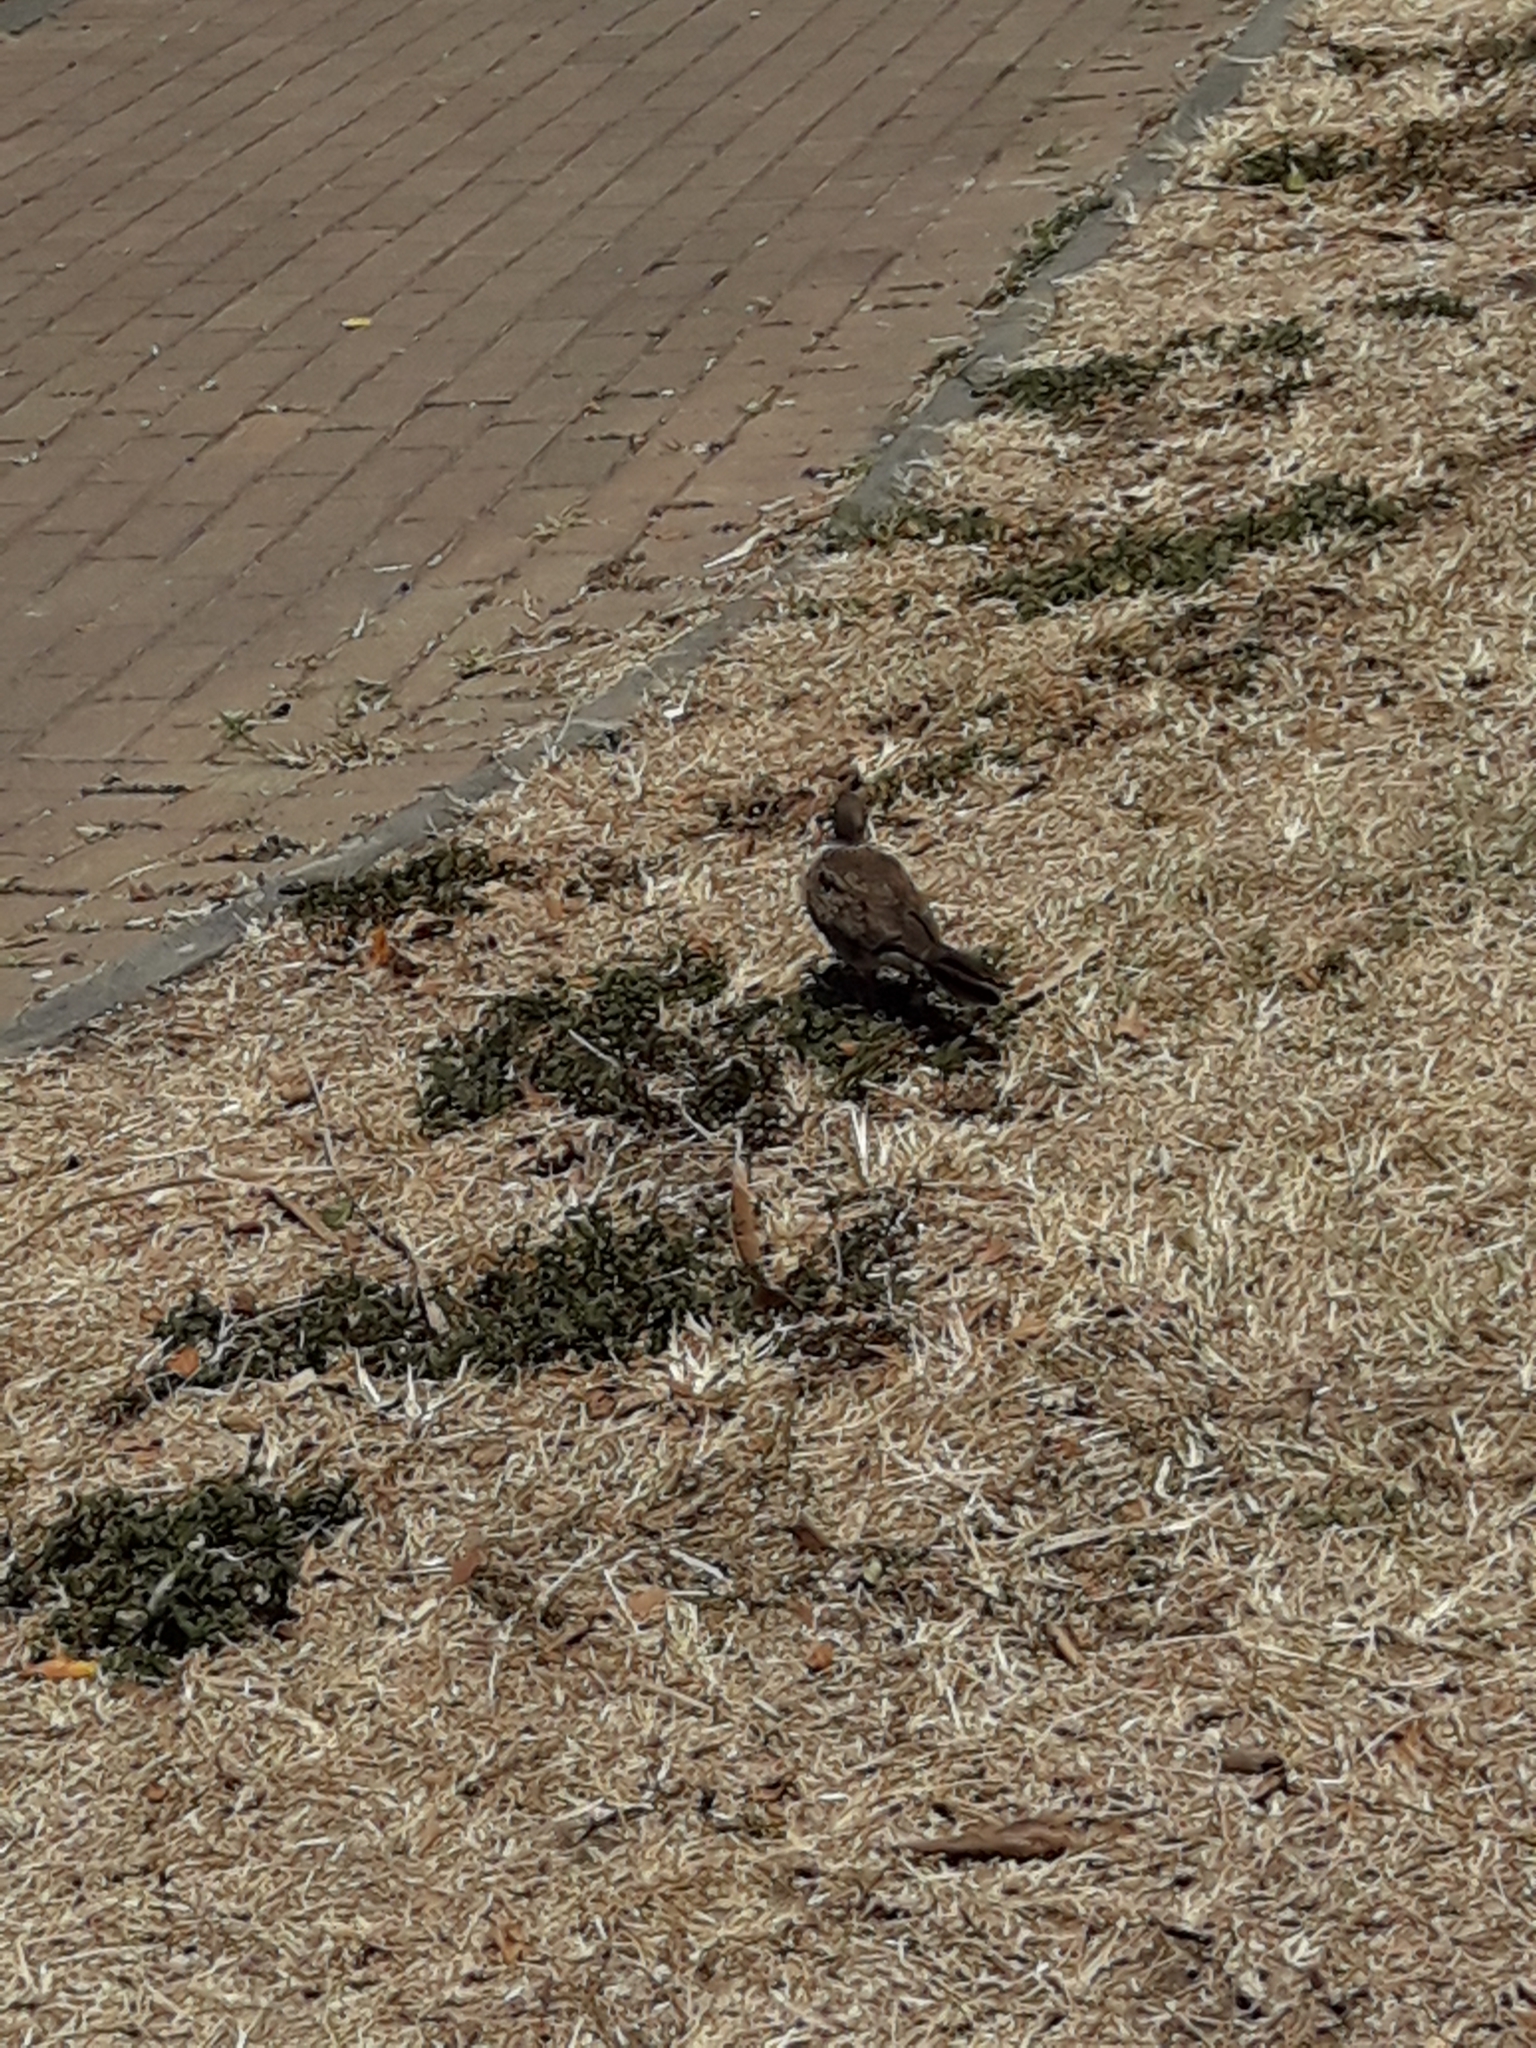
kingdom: Animalia
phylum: Chordata
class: Aves
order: Columbiformes
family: Columbidae
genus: Spilopelia
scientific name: Spilopelia chinensis
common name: Spotted dove
